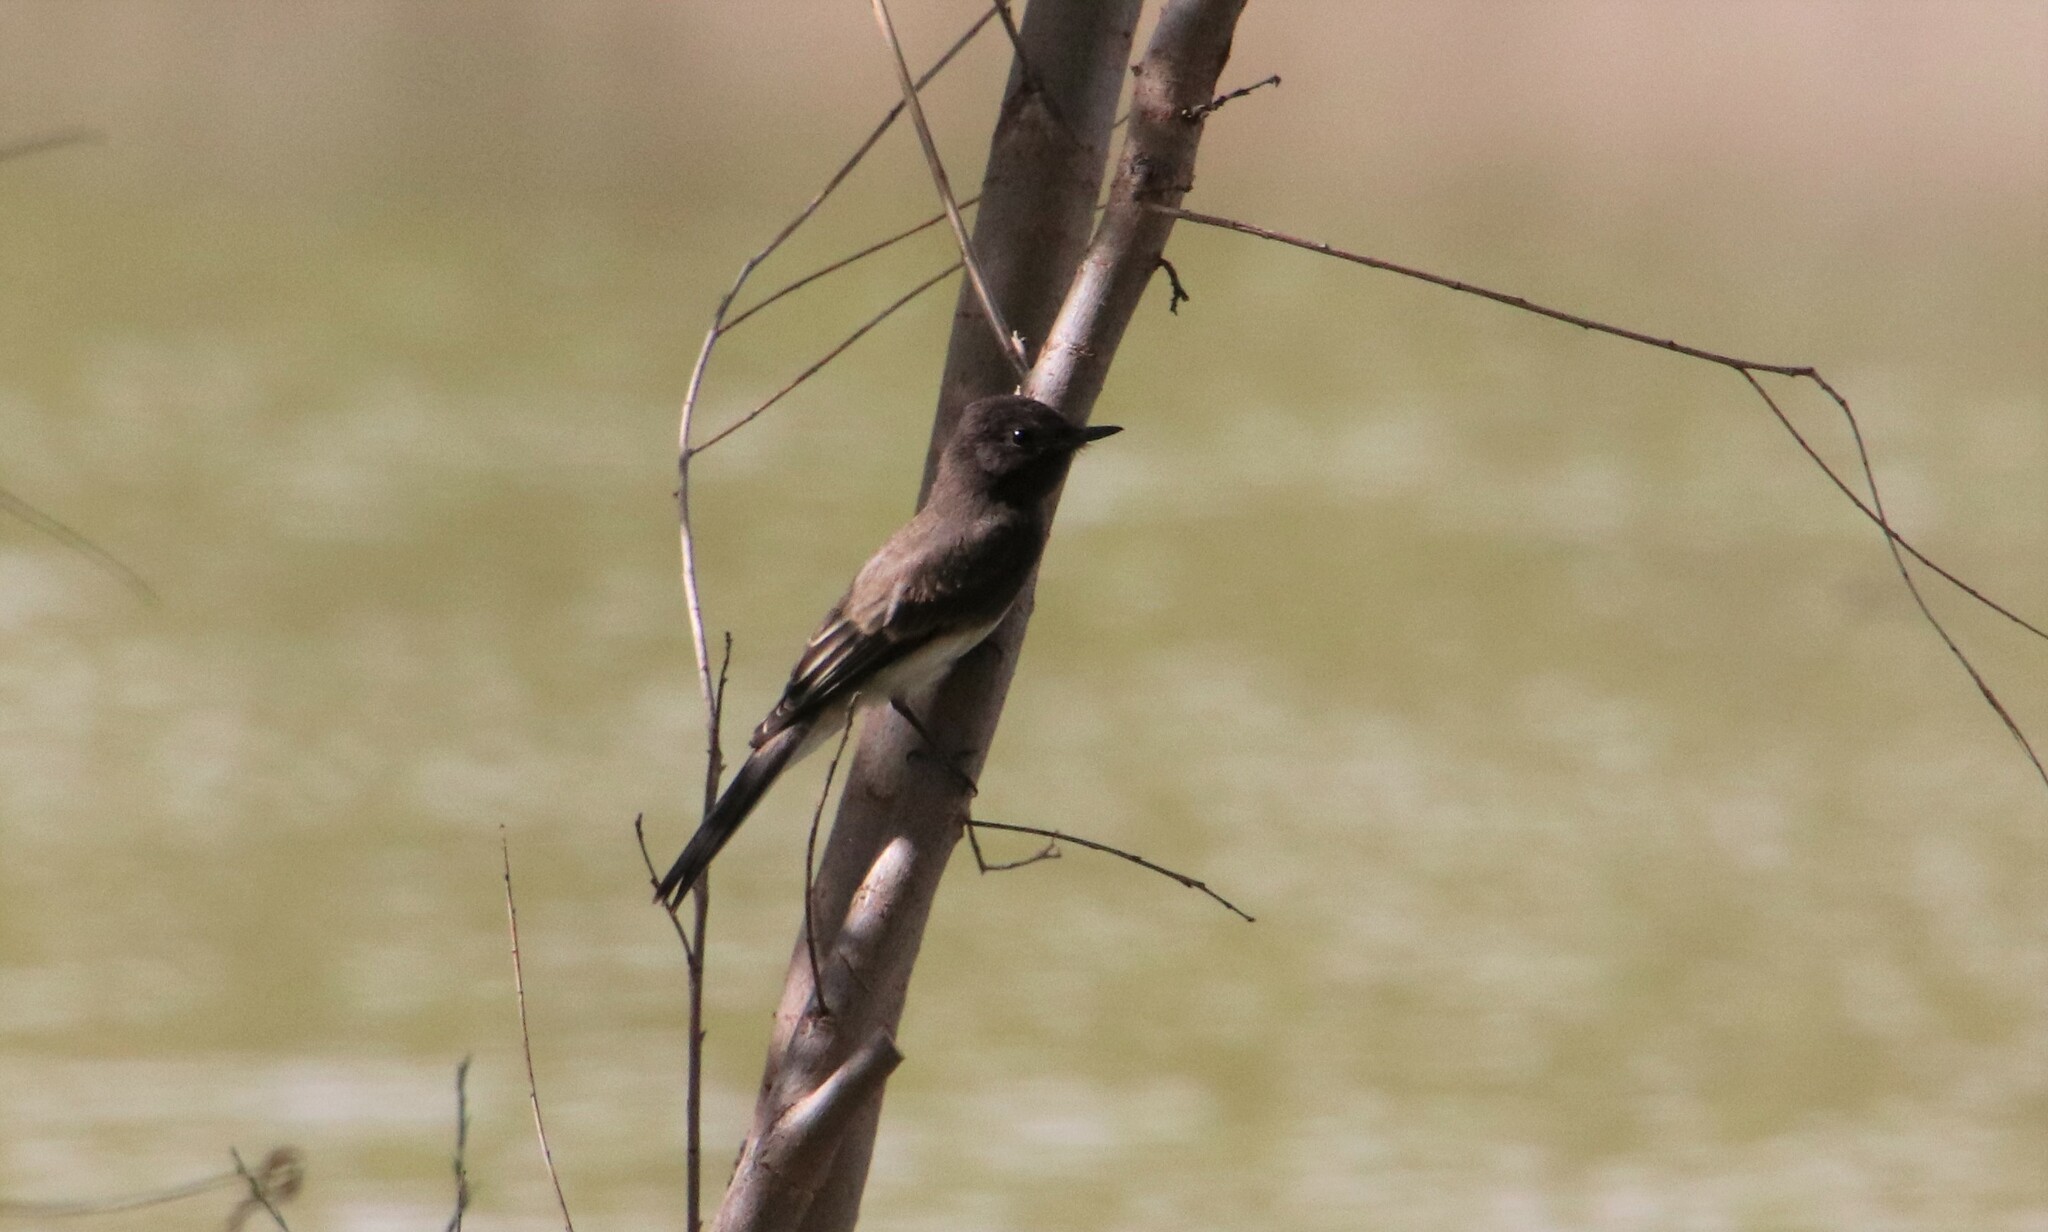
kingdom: Animalia
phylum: Chordata
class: Aves
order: Passeriformes
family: Tyrannidae
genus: Sayornis
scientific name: Sayornis nigricans
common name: Black phoebe
